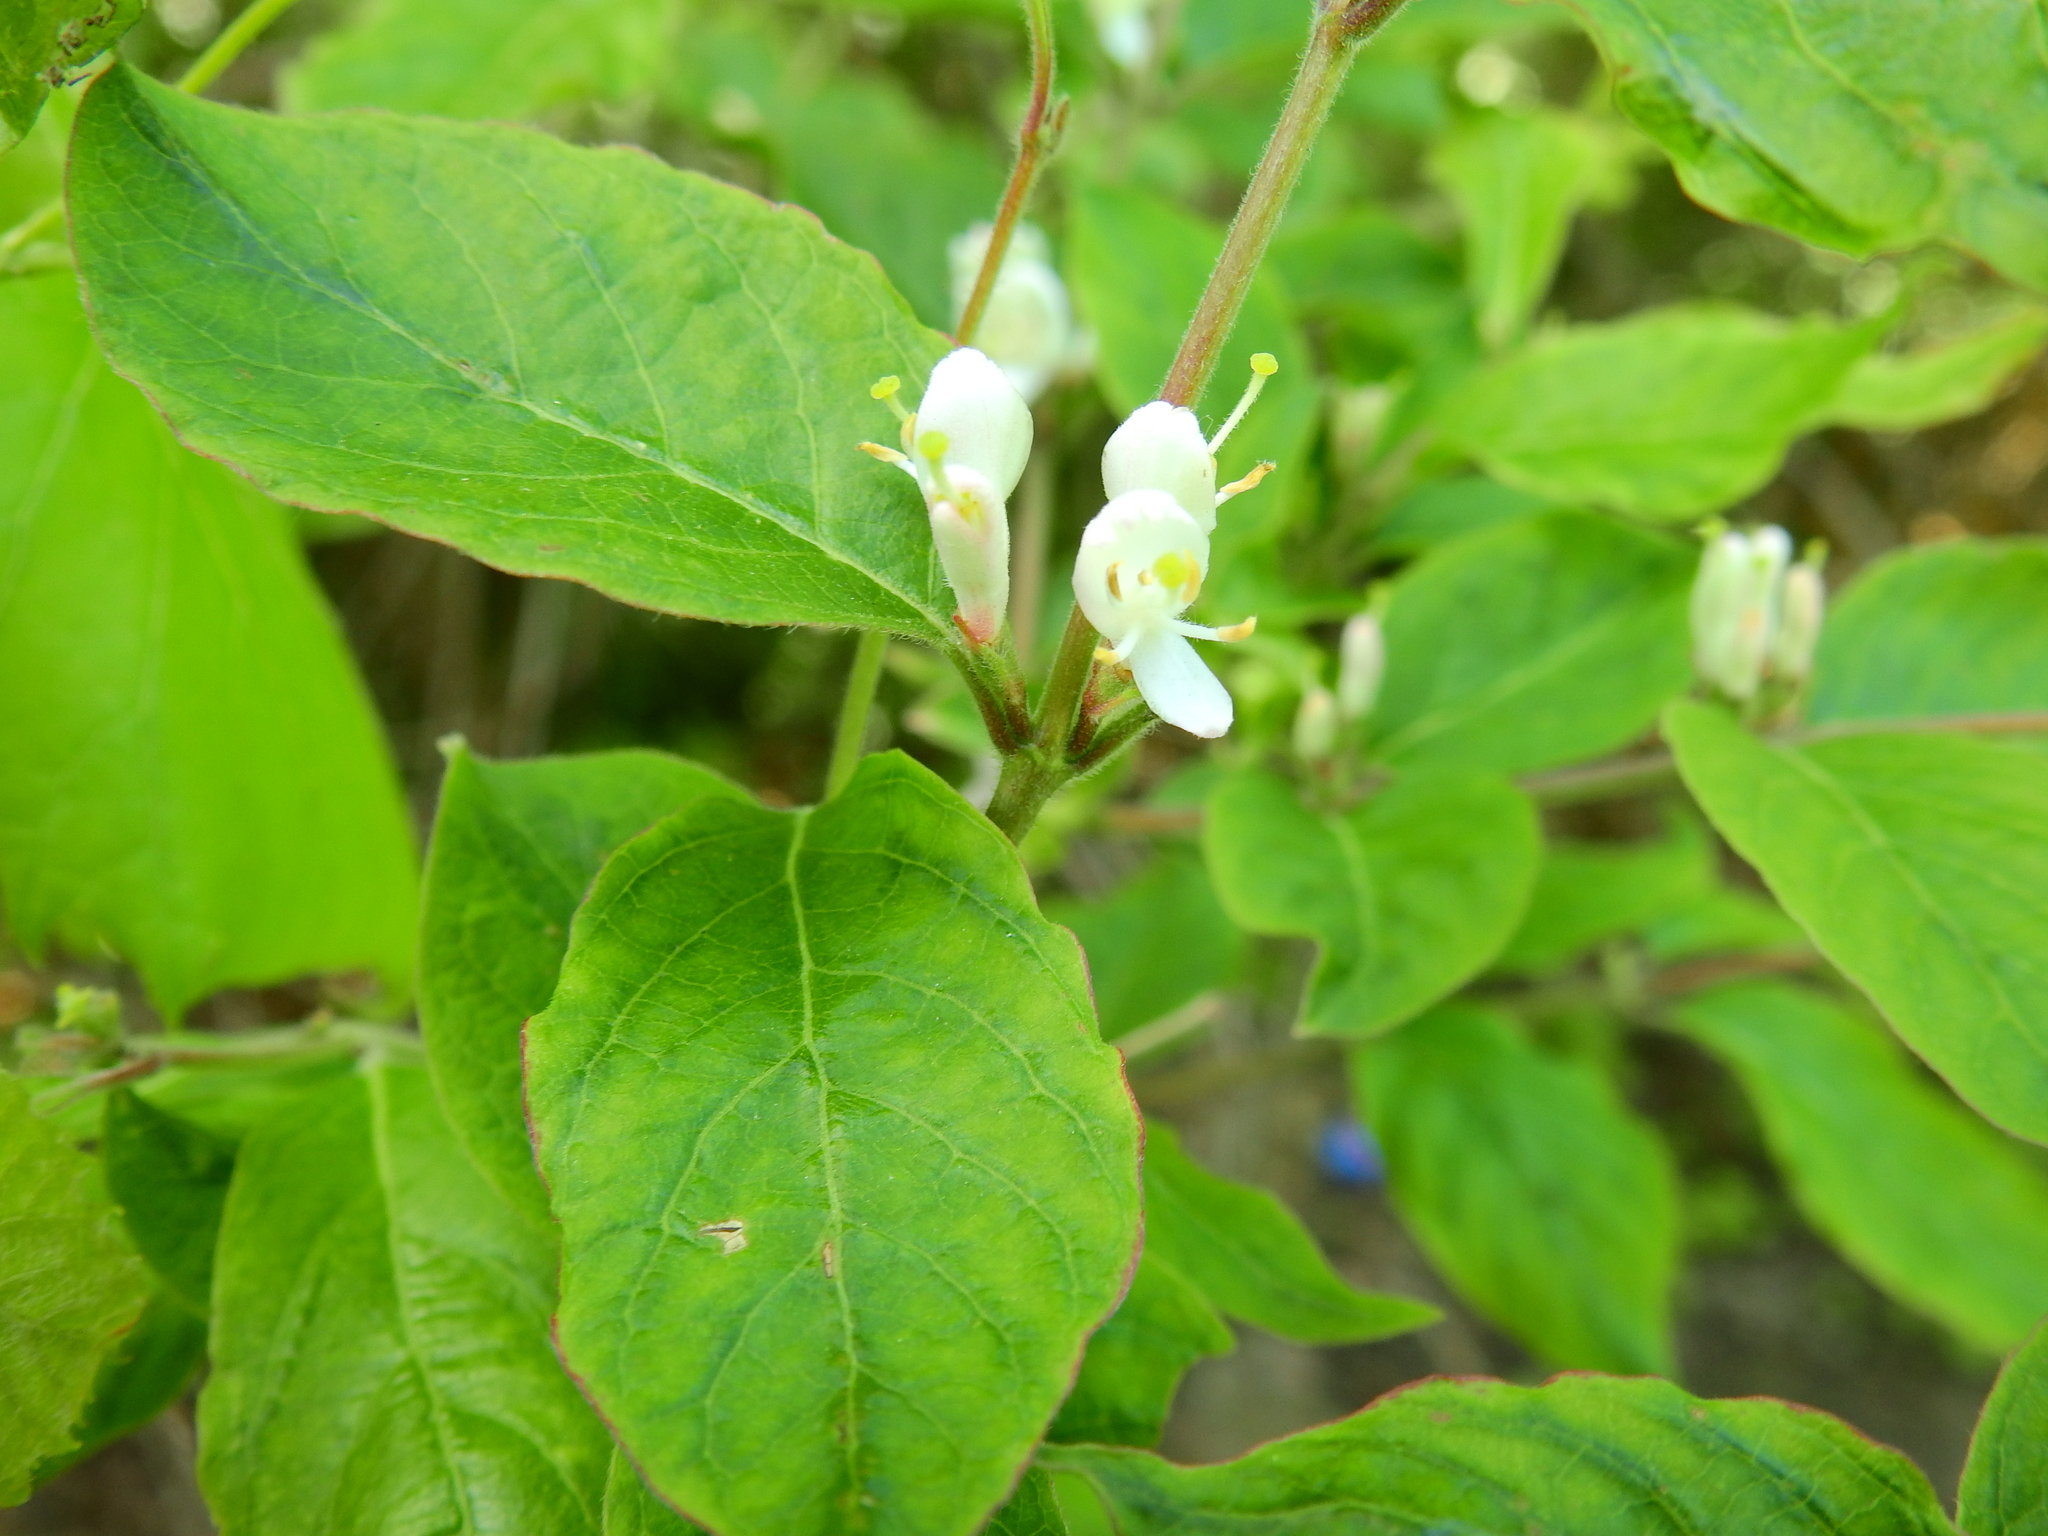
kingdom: Plantae
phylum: Tracheophyta
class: Magnoliopsida
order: Dipsacales
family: Caprifoliaceae
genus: Lonicera
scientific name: Lonicera maackii
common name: Amur honeysuckle
